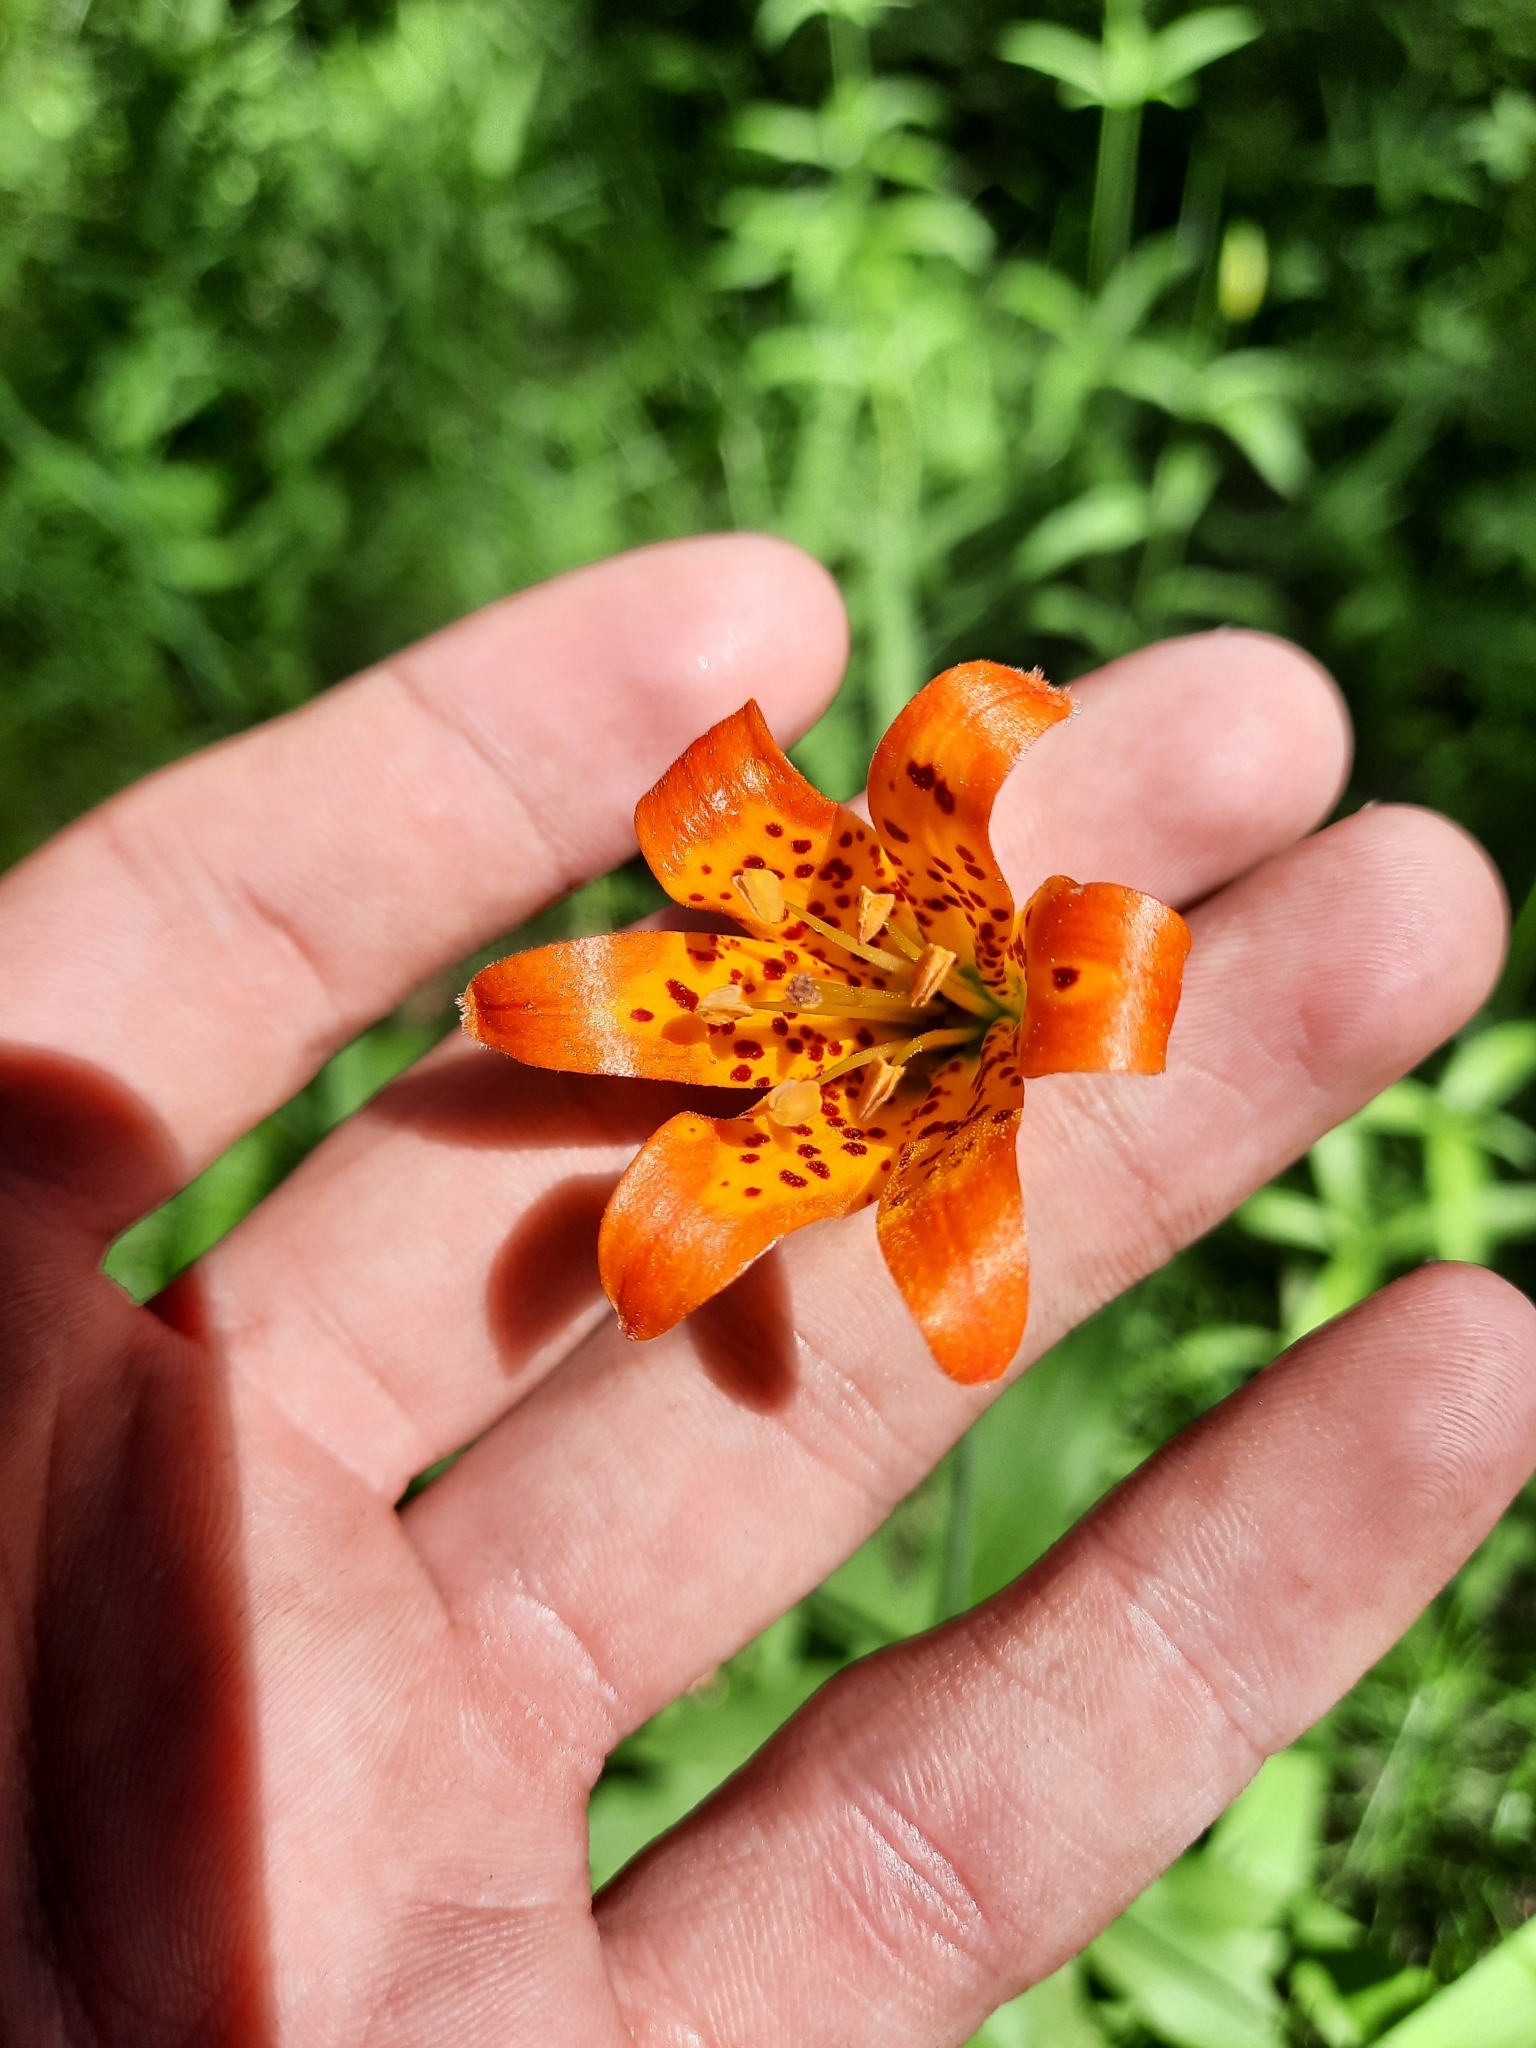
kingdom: Plantae
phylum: Tracheophyta
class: Liliopsida
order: Liliales
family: Liliaceae
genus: Lilium
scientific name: Lilium parvum
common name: Alpine lily
